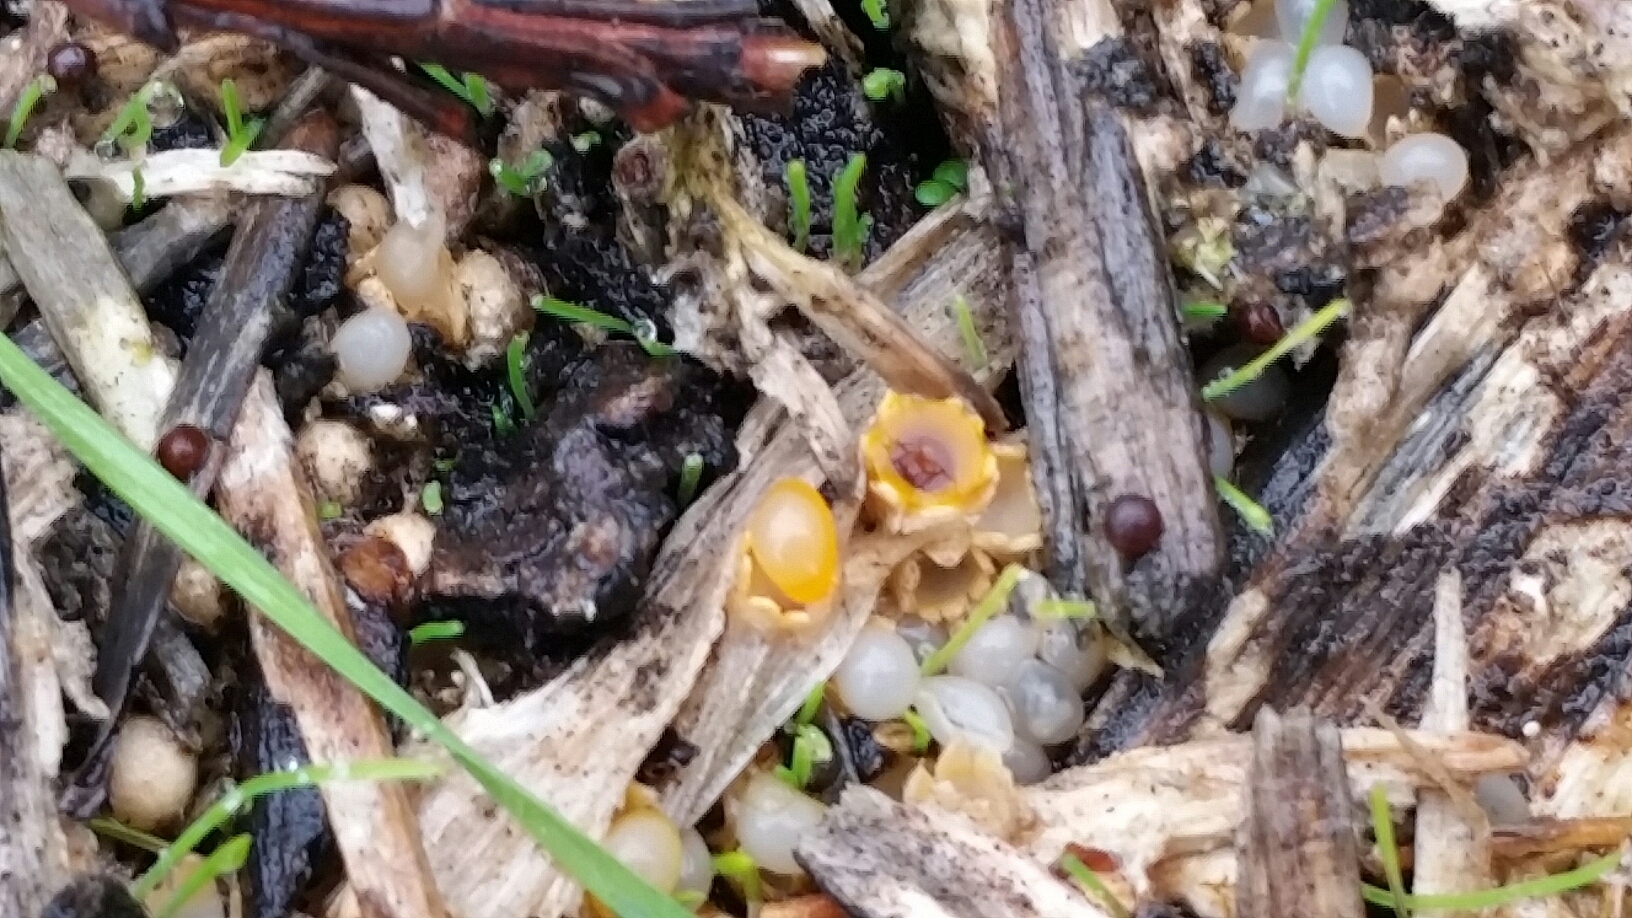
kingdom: Fungi
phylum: Basidiomycota
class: Agaricomycetes
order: Geastrales
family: Geastraceae
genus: Sphaerobolus
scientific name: Sphaerobolus stellatus
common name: Cannon fungus
